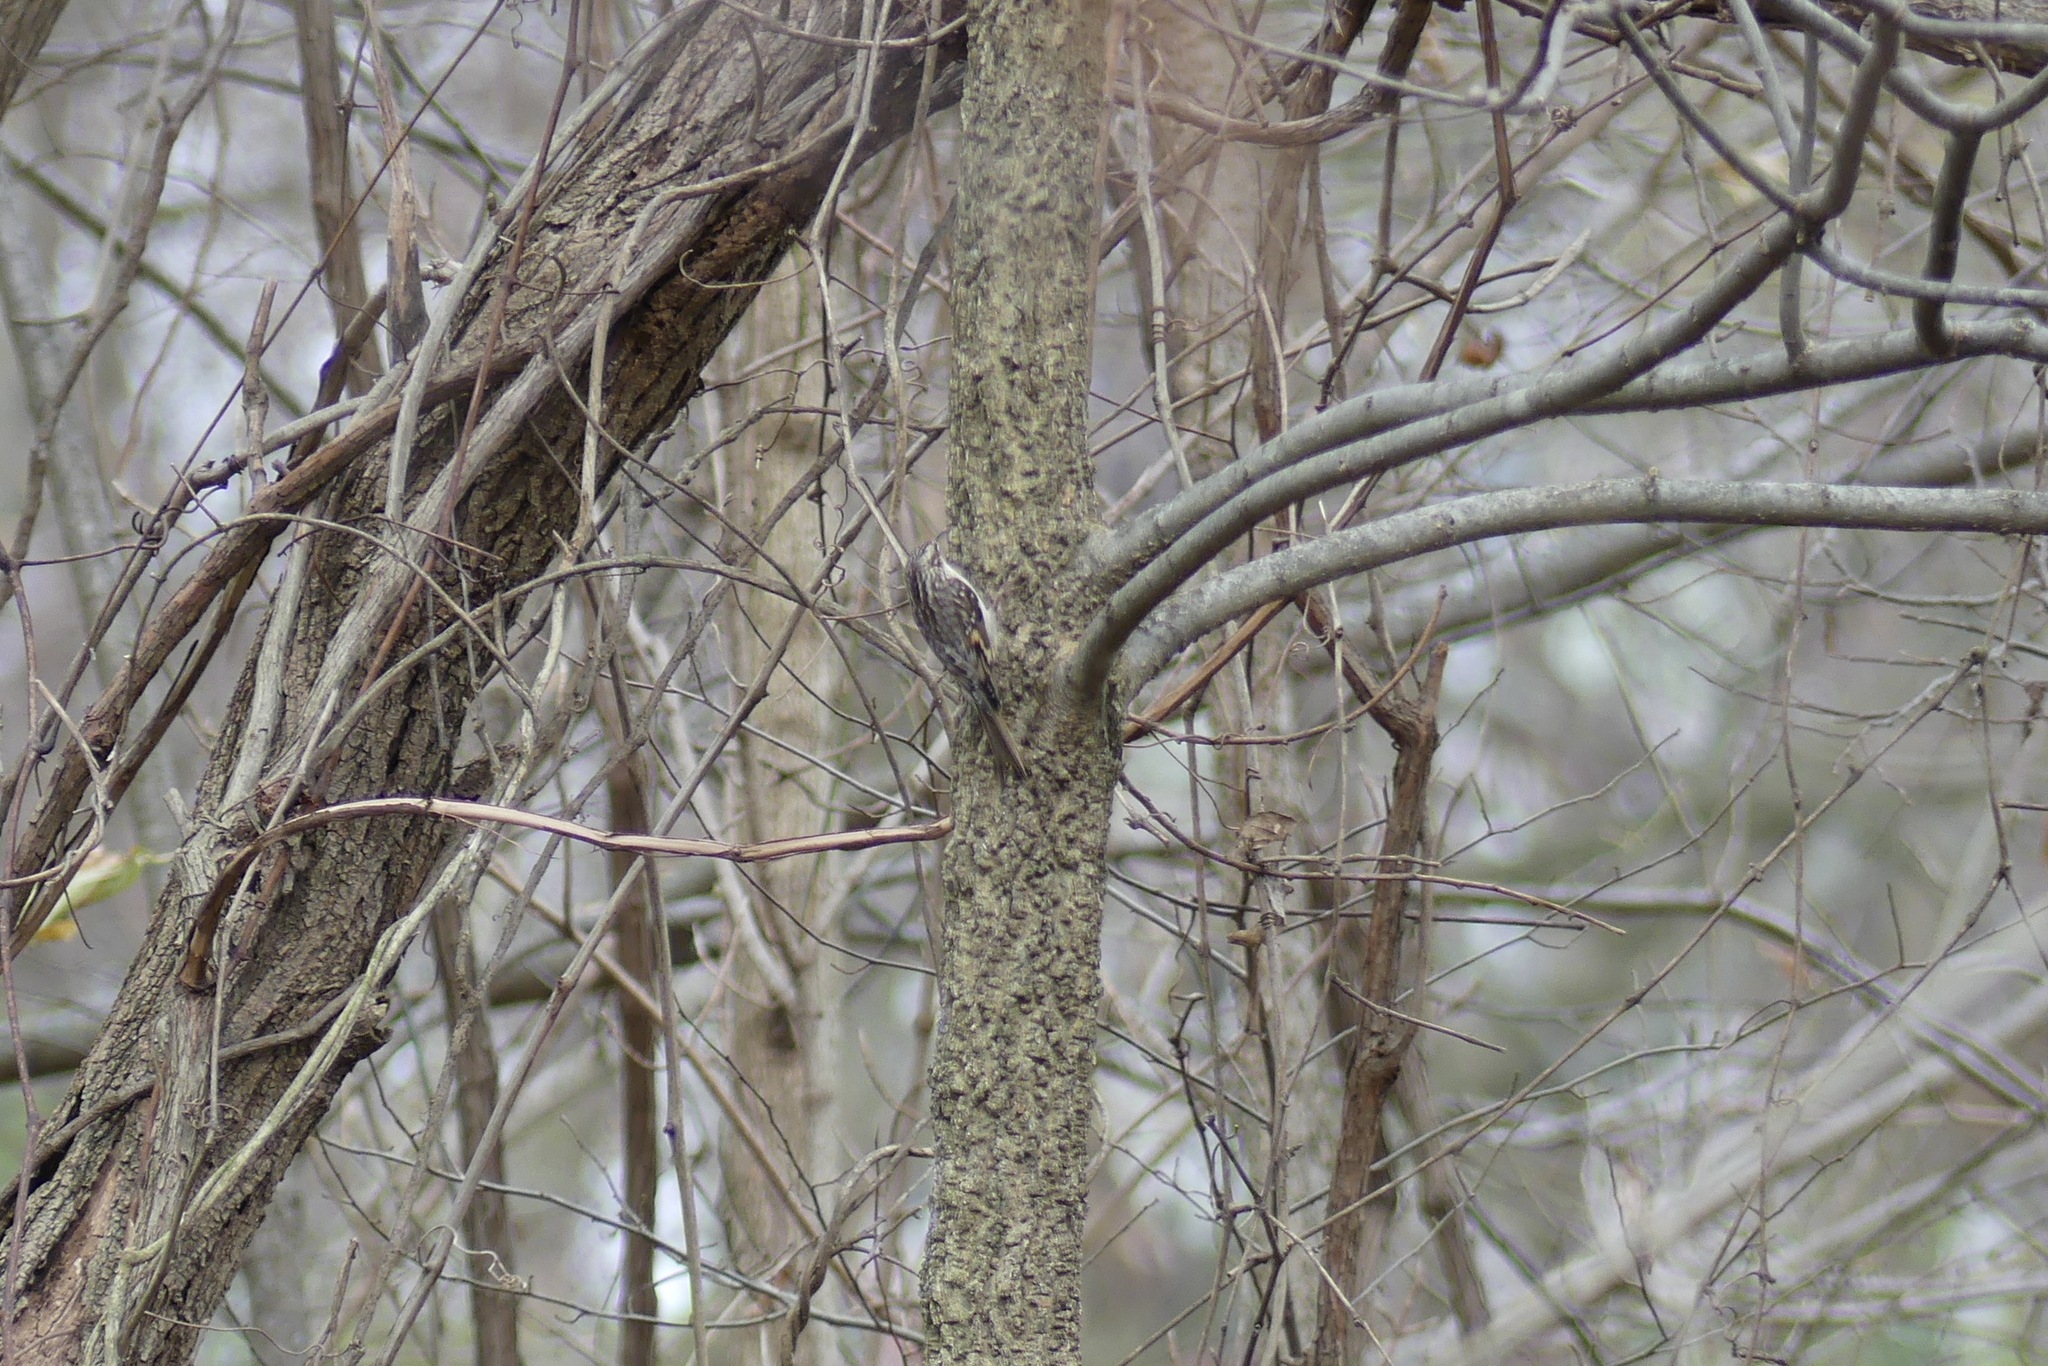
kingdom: Animalia
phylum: Chordata
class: Aves
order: Passeriformes
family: Certhiidae
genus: Certhia
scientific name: Certhia americana
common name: Brown creeper
